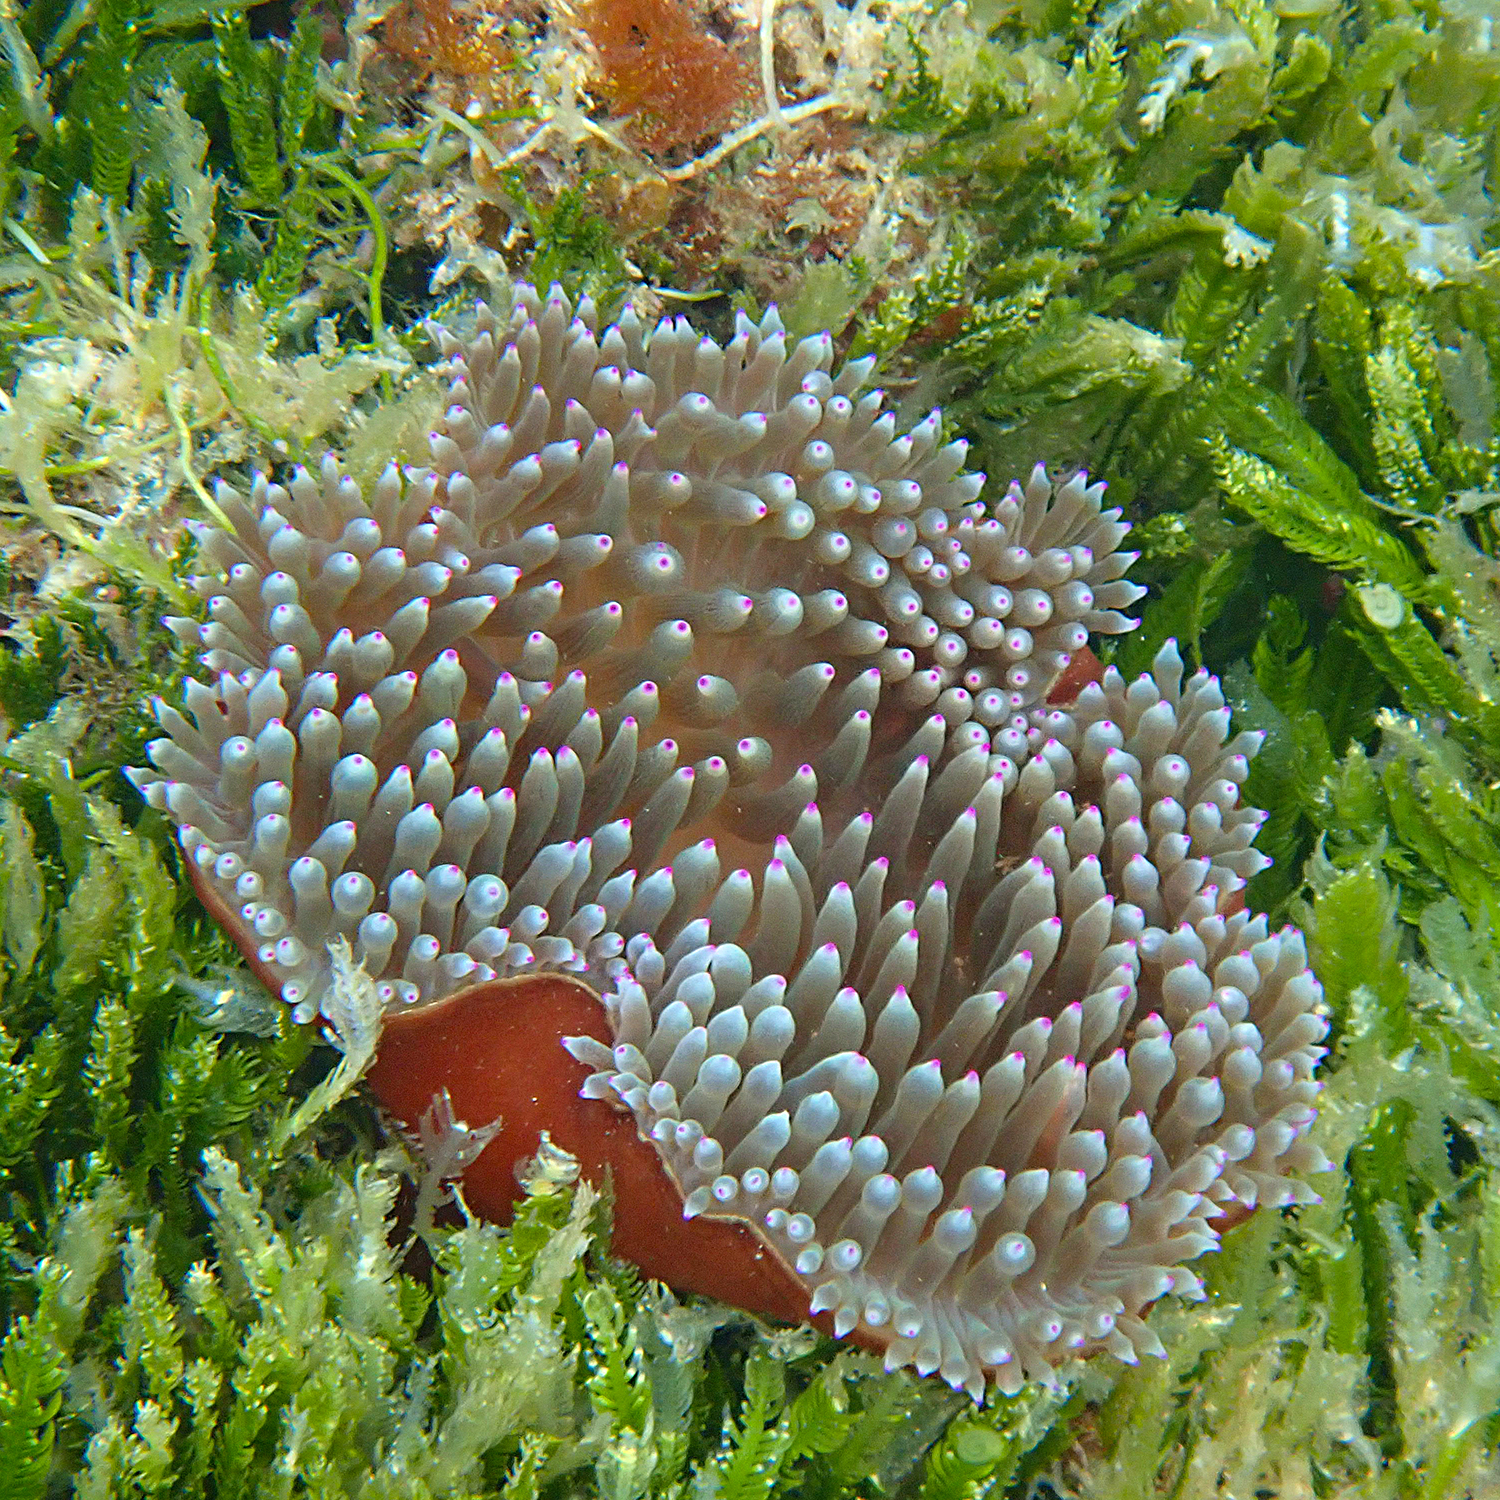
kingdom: Animalia
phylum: Cnidaria
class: Anthozoa
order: Actiniaria
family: Actiniidae
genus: Entacmaea
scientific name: Entacmaea quadricolor
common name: Bulb tentacle sea anemone
